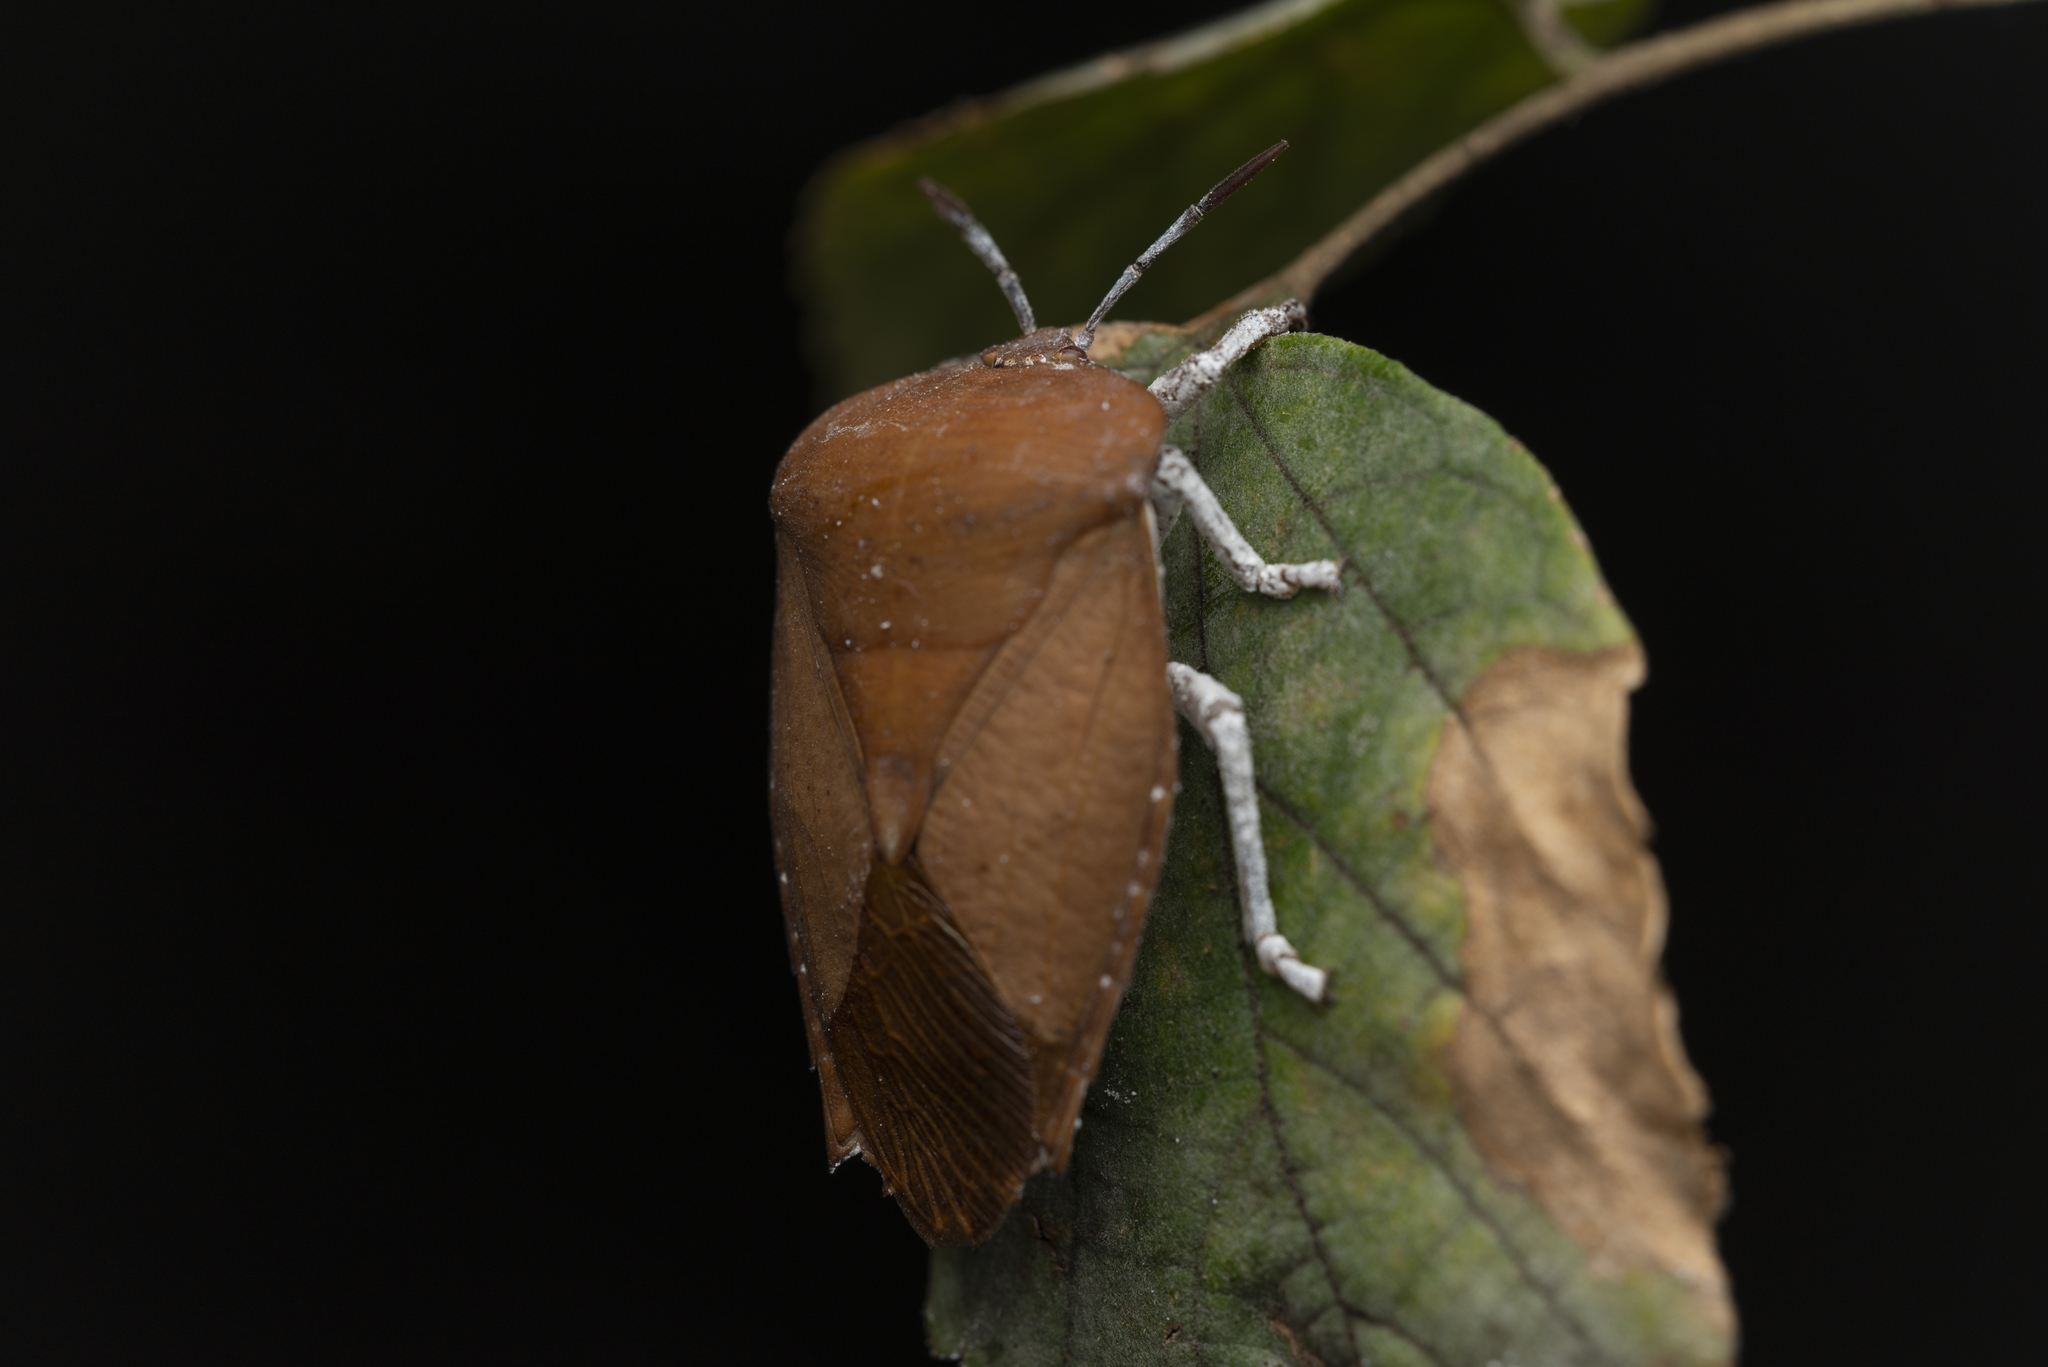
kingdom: Animalia
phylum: Arthropoda
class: Insecta
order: Hemiptera
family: Tessaratomidae
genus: Tessaratoma
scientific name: Tessaratoma papillosa
